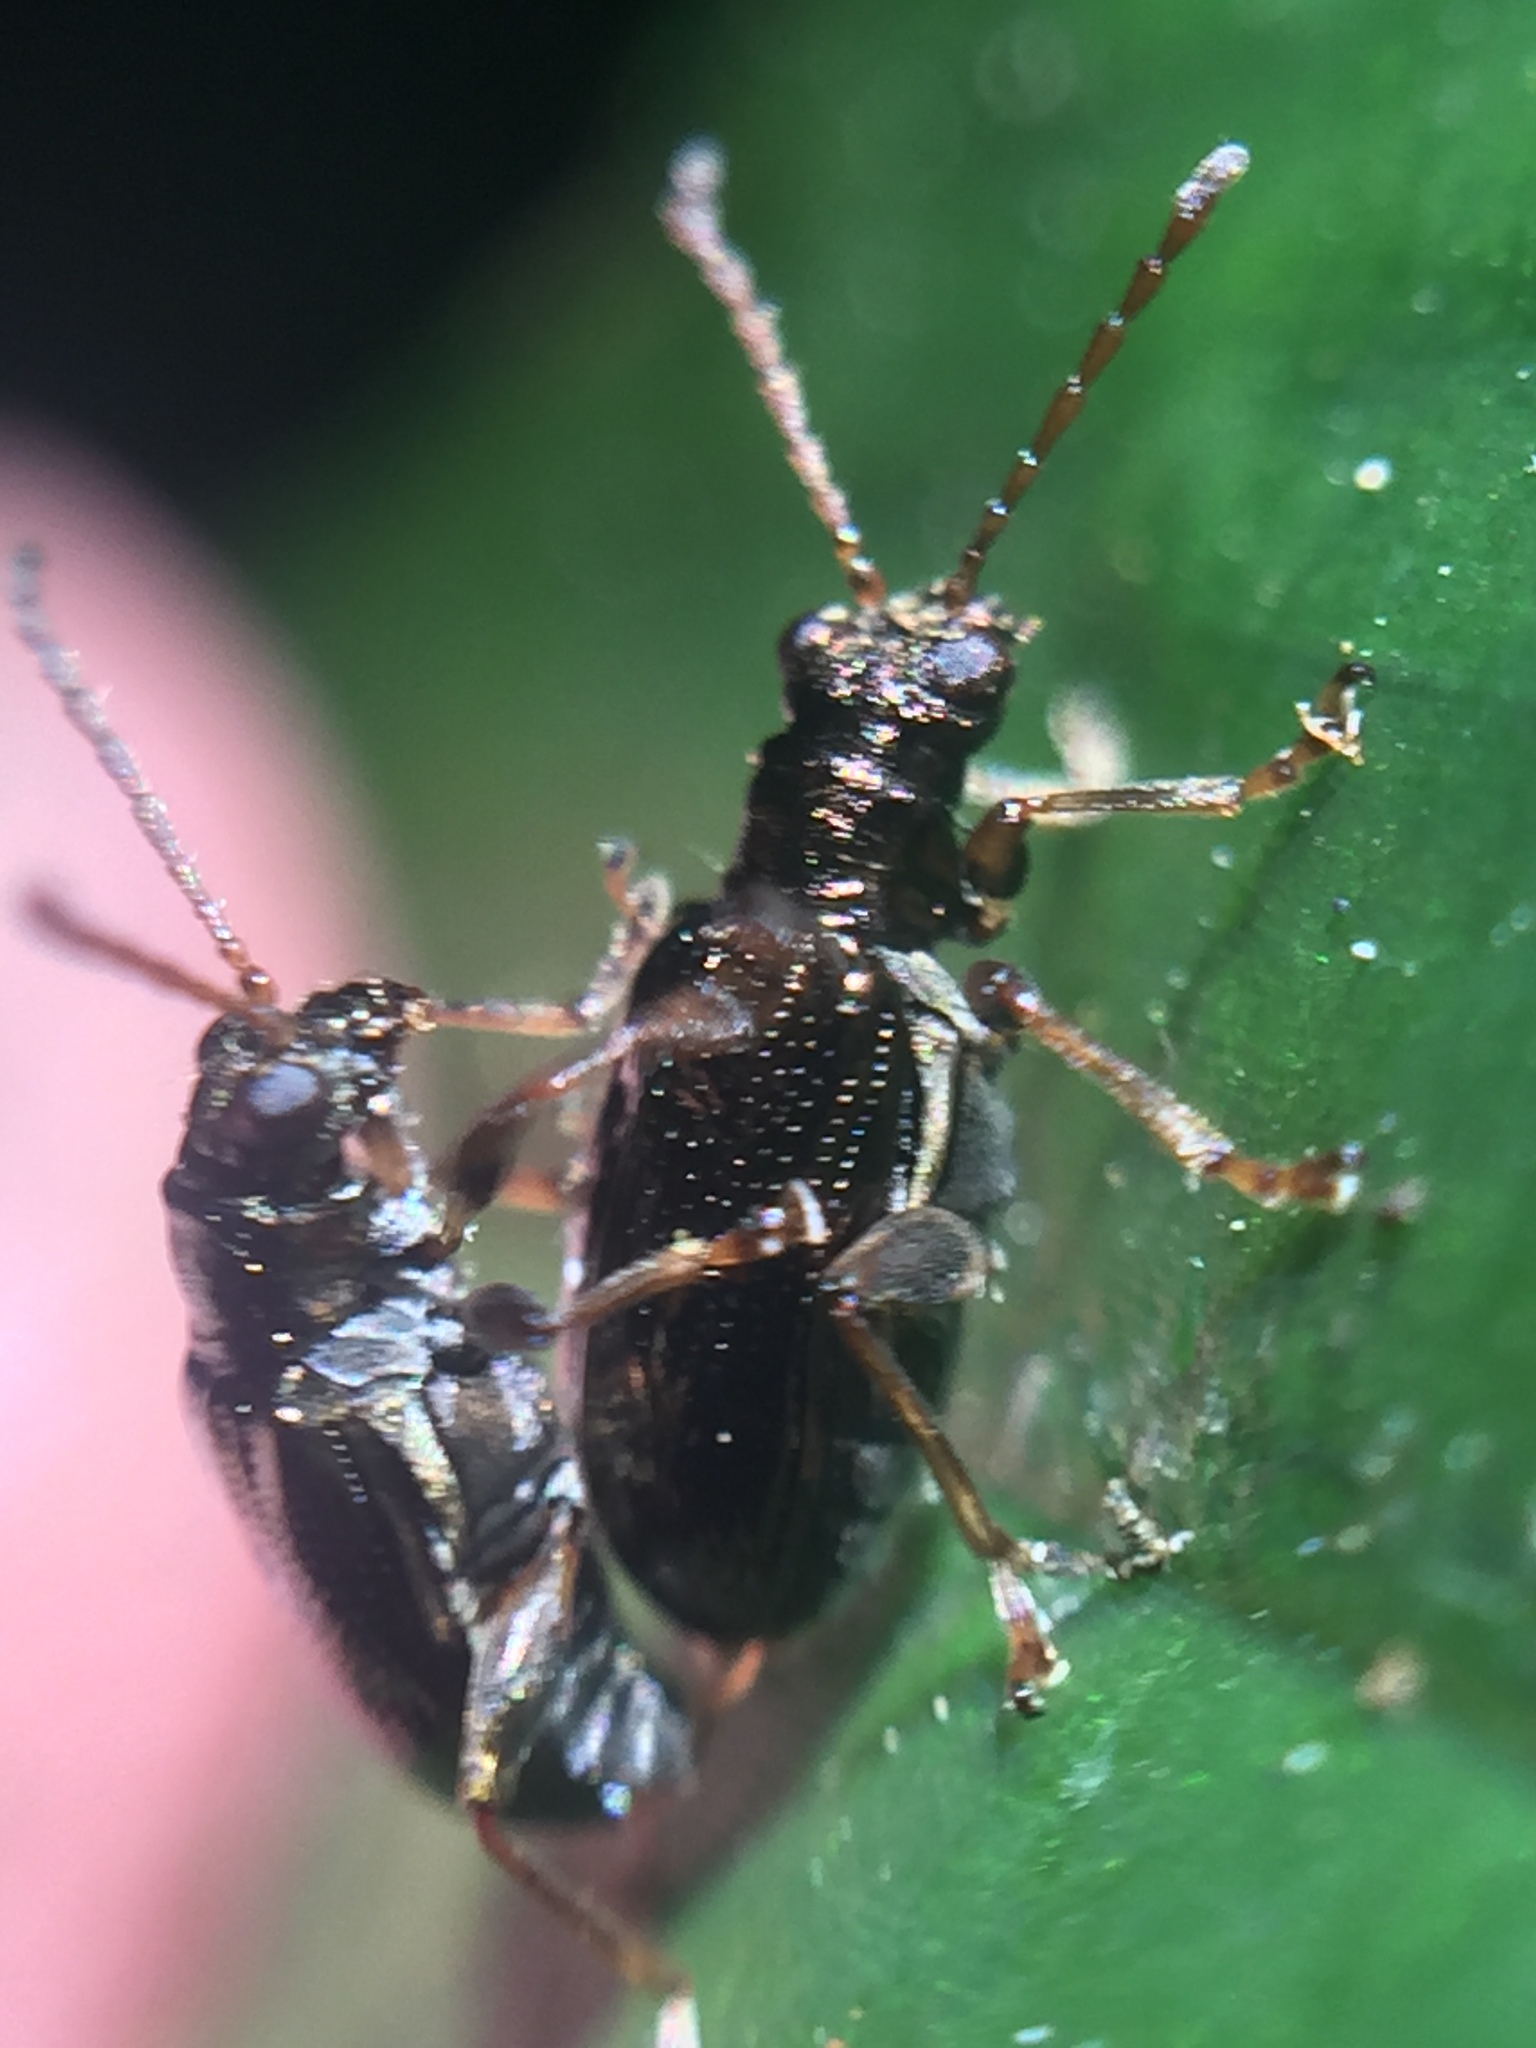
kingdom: Animalia
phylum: Arthropoda
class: Insecta
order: Coleoptera
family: Chrysomelidae
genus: Neolema
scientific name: Neolema ogloblini
